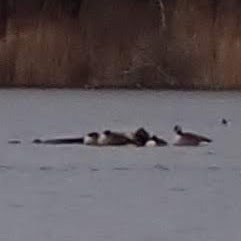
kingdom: Animalia
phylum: Chordata
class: Aves
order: Anseriformes
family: Anatidae
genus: Branta
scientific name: Branta canadensis
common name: Canada goose
